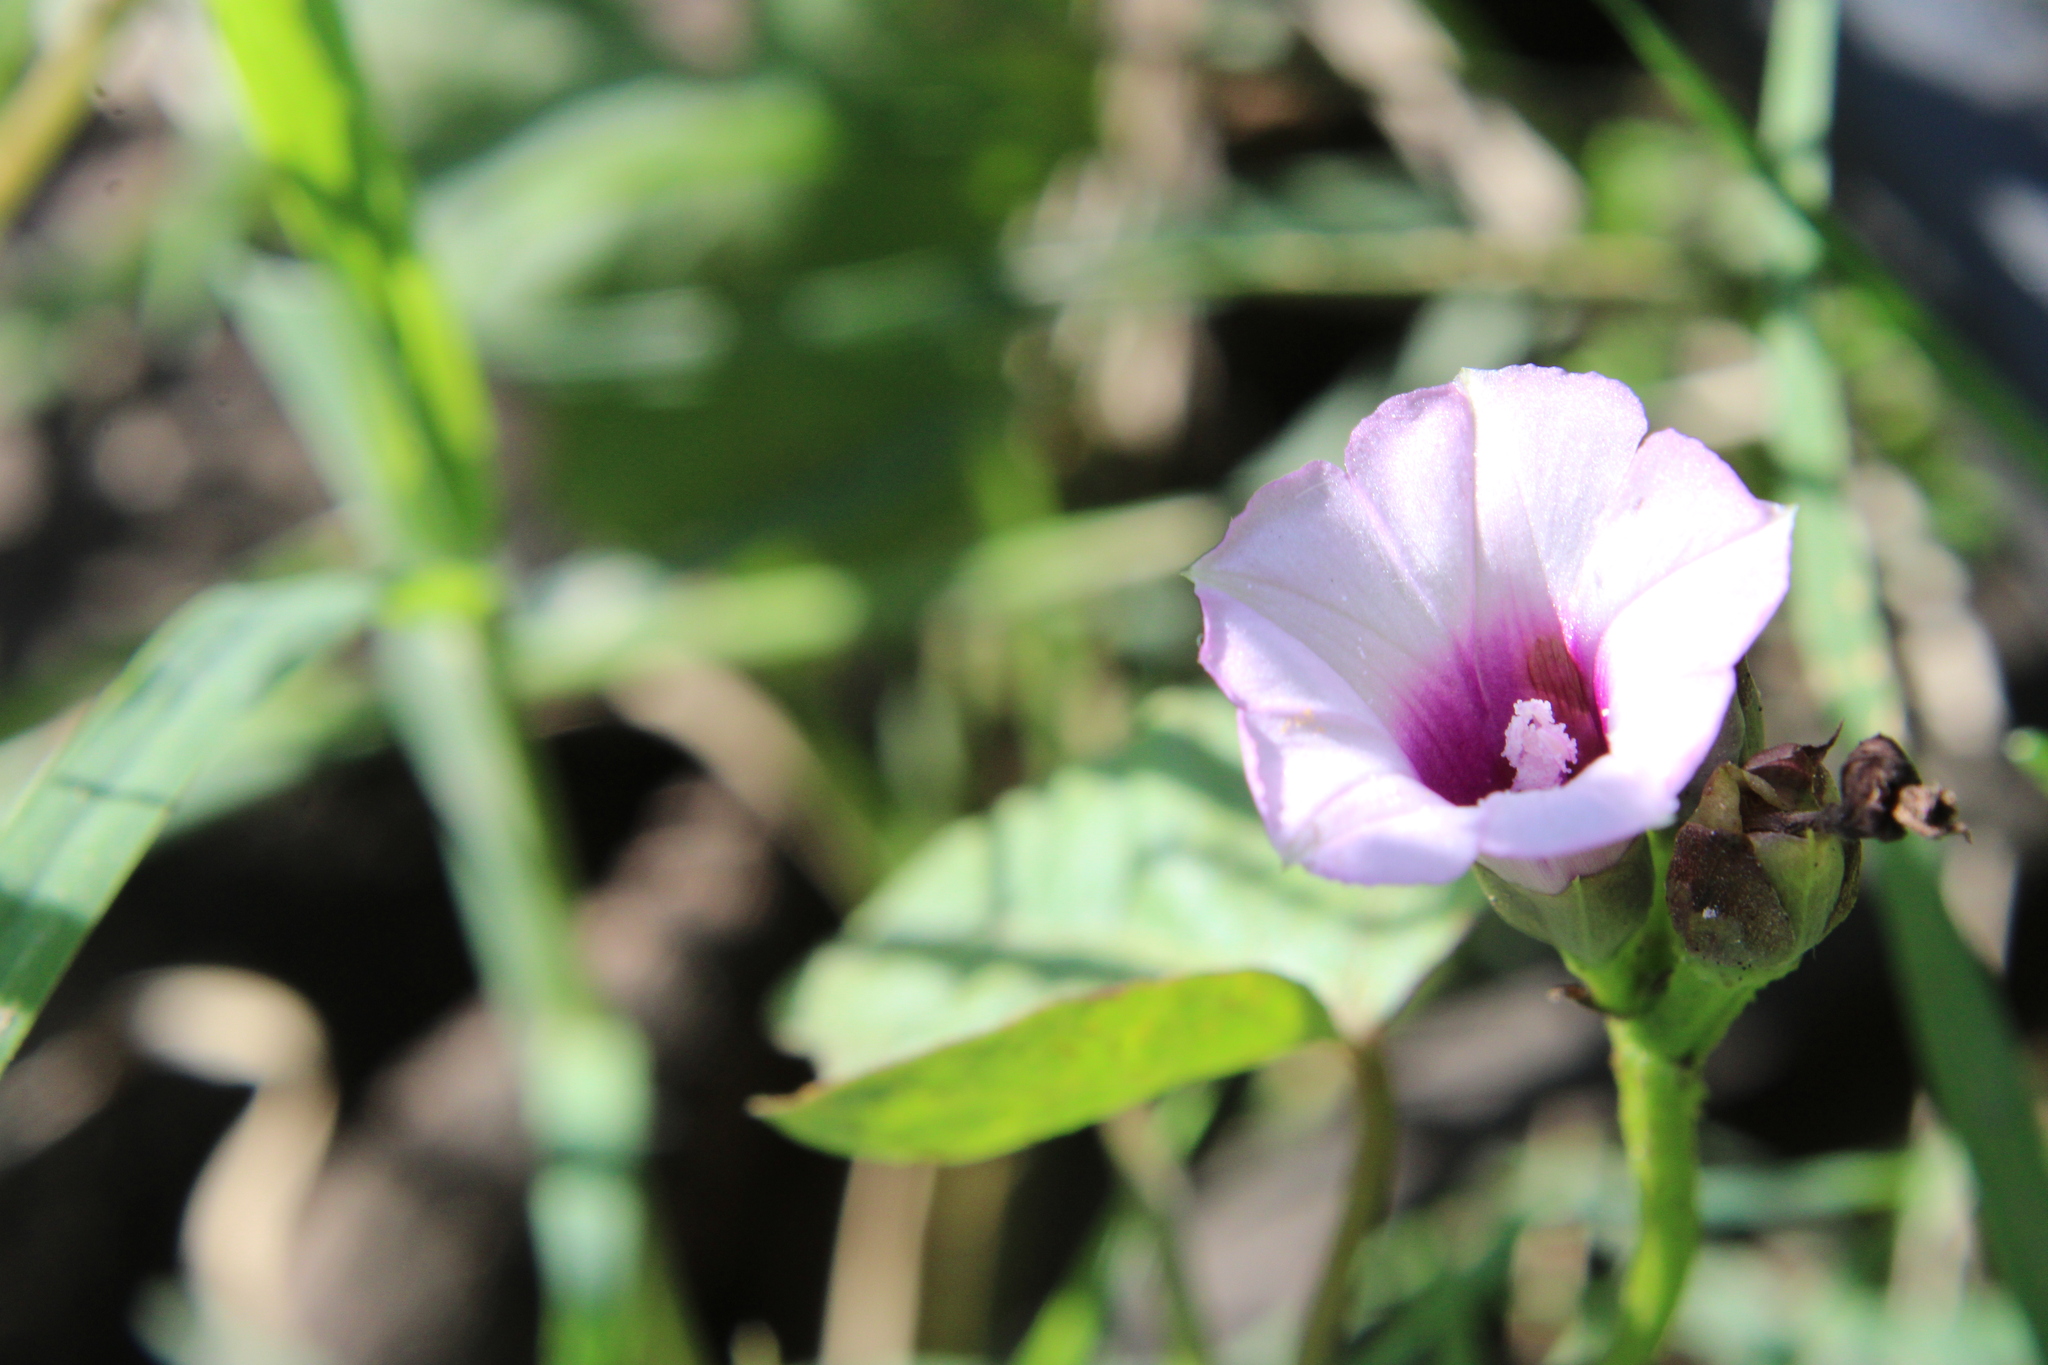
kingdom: Plantae
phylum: Tracheophyta
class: Magnoliopsida
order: Solanales
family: Convolvulaceae
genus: Ipomoea
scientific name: Ipomoea grandifolia
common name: Aiea morning glory
